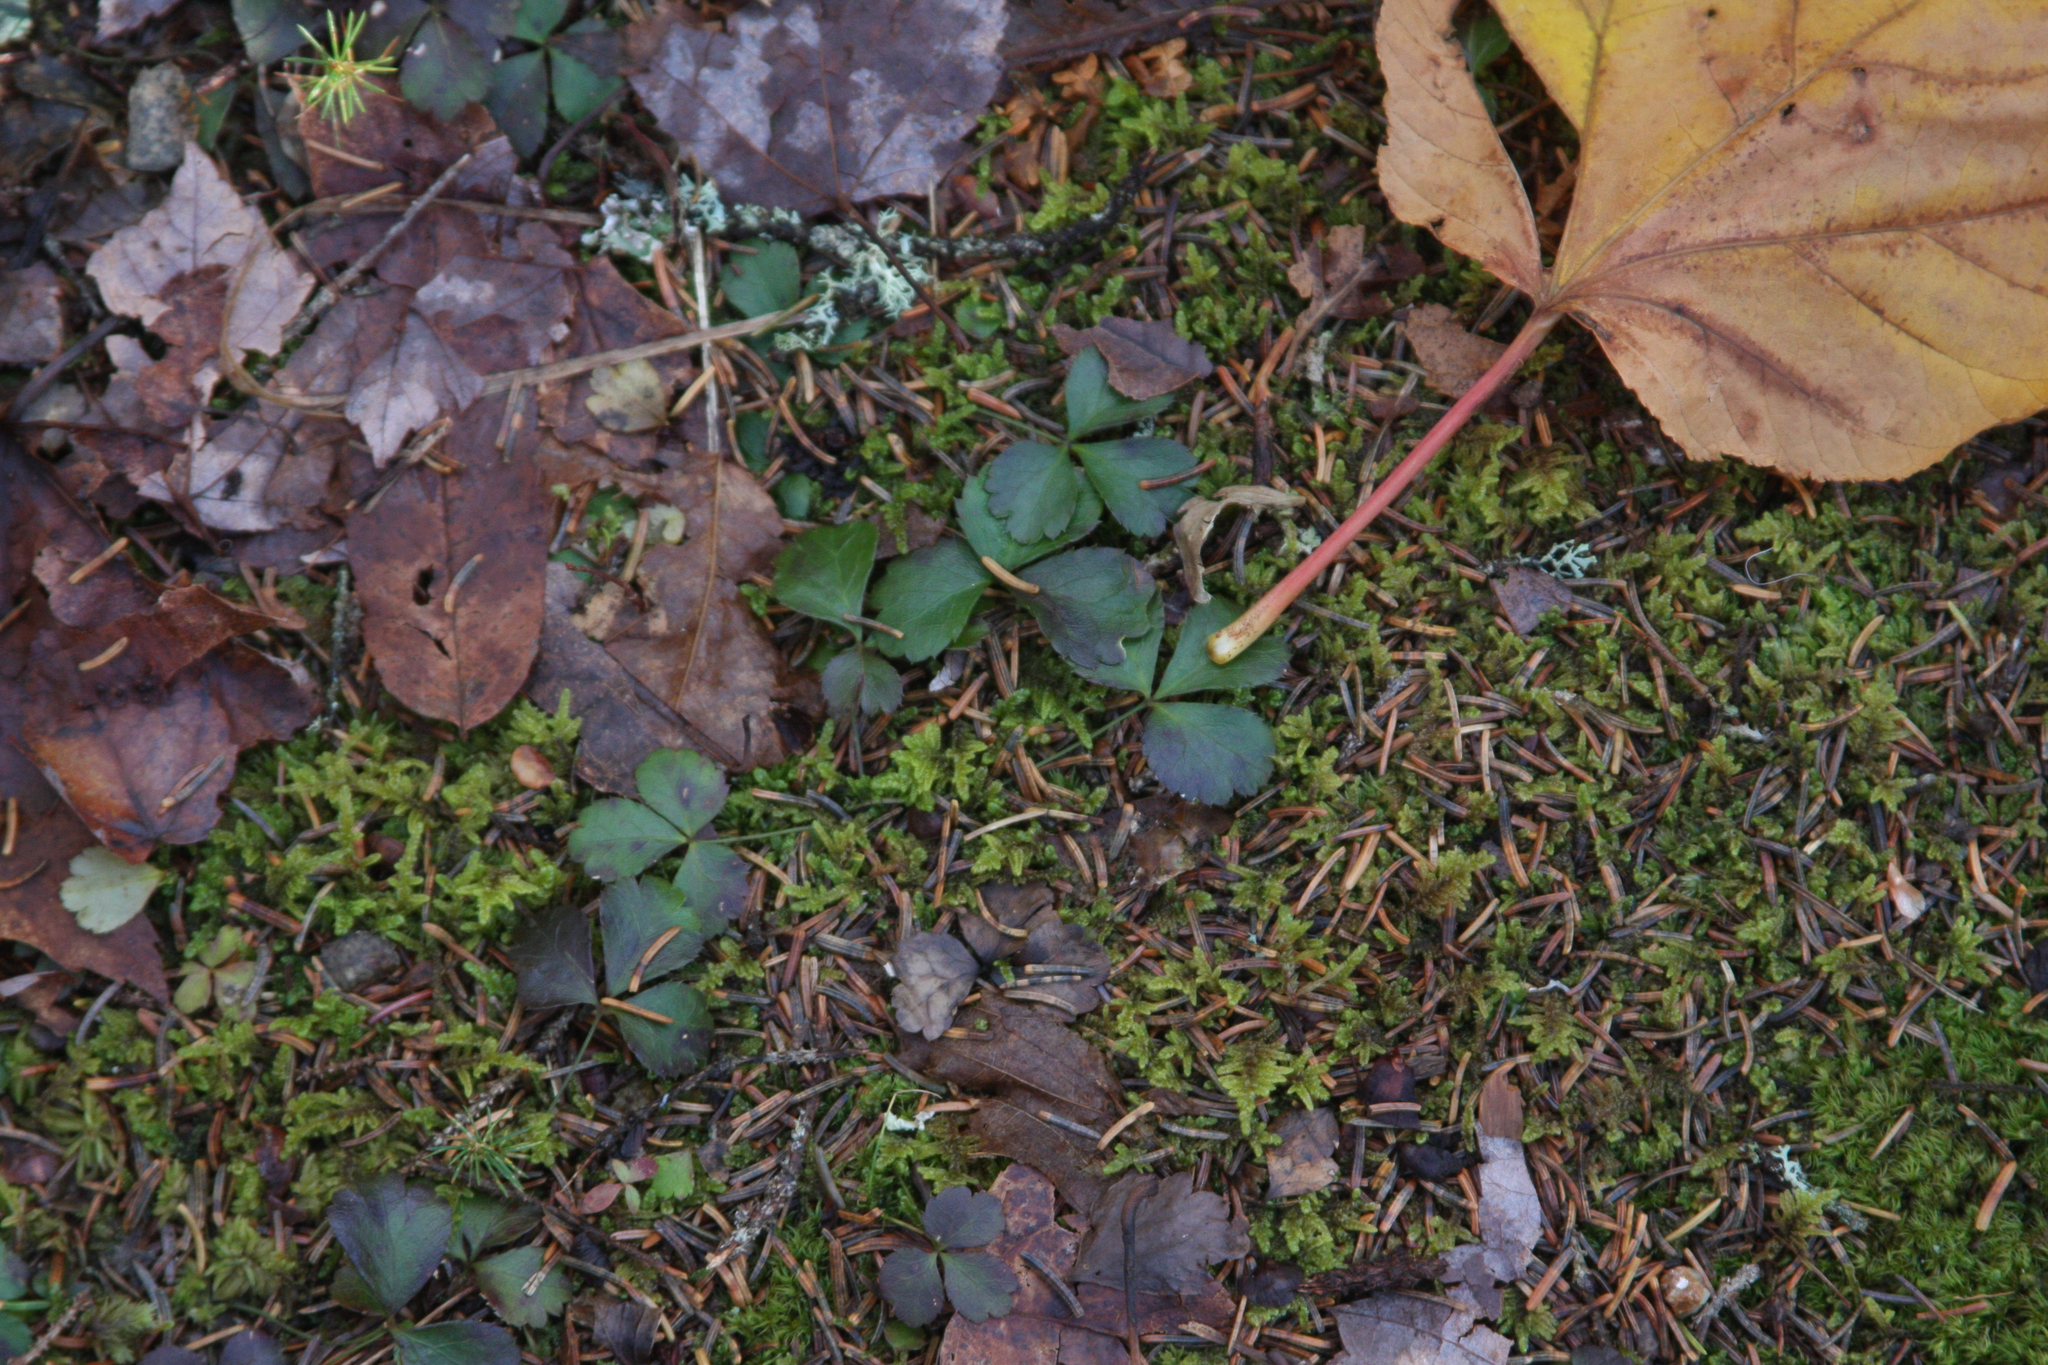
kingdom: Plantae
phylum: Tracheophyta
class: Magnoliopsida
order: Ranunculales
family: Ranunculaceae
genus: Coptis
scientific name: Coptis trifolia
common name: Canker-root
